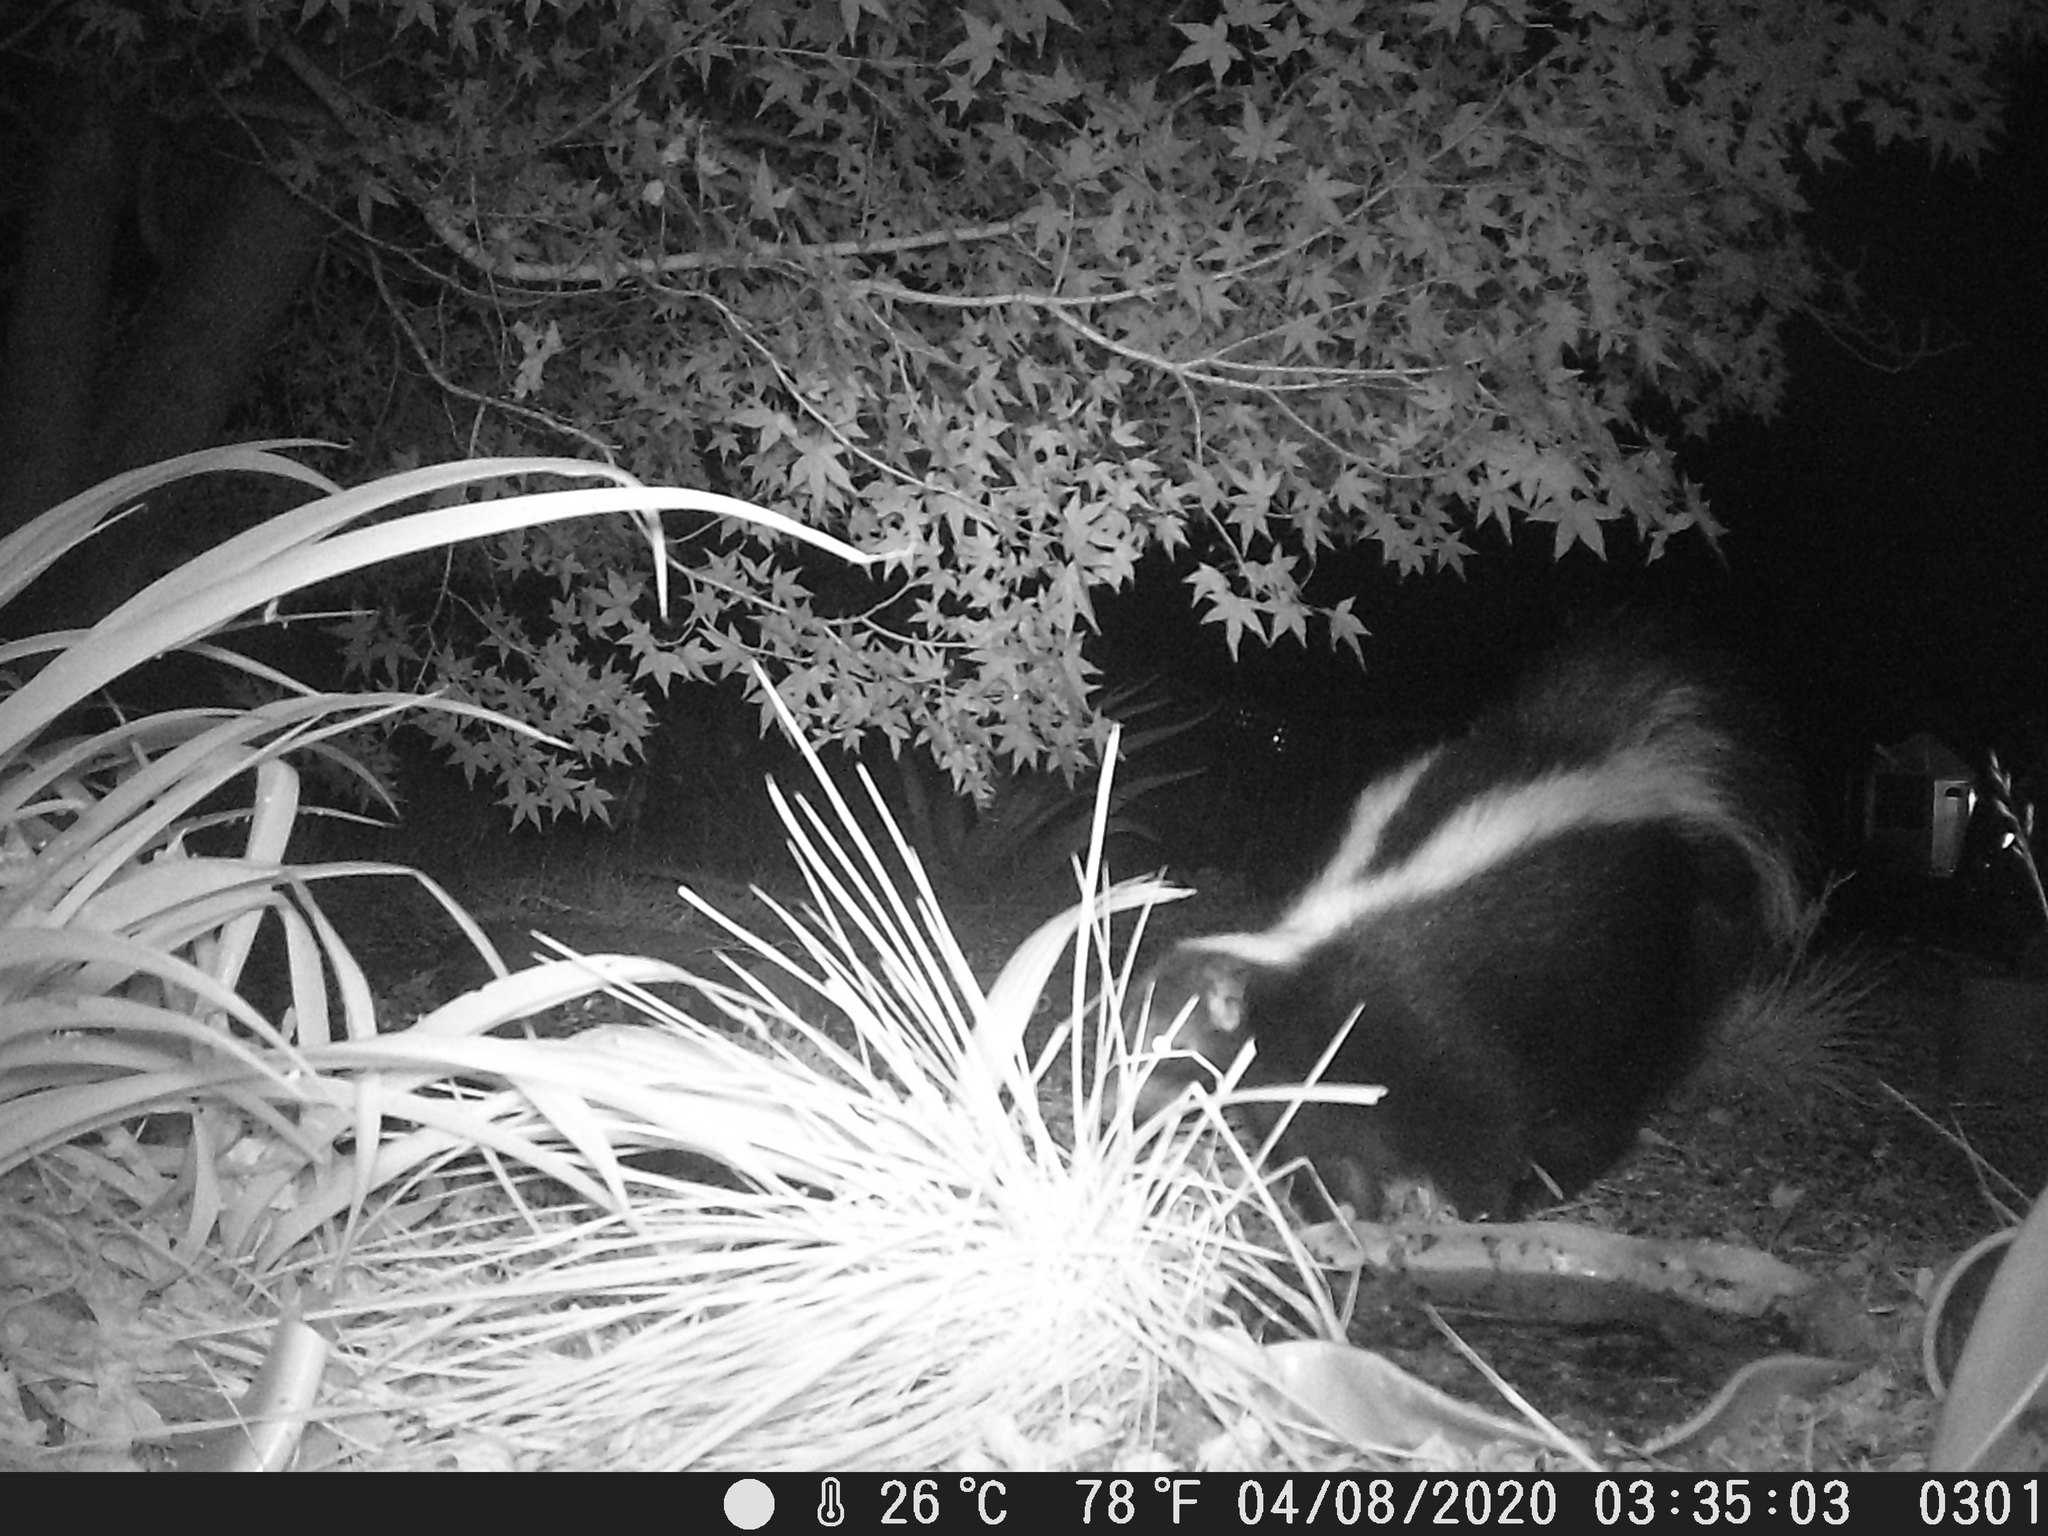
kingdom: Animalia
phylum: Chordata
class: Mammalia
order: Carnivora
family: Mephitidae
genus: Mephitis
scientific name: Mephitis mephitis
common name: Striped skunk
